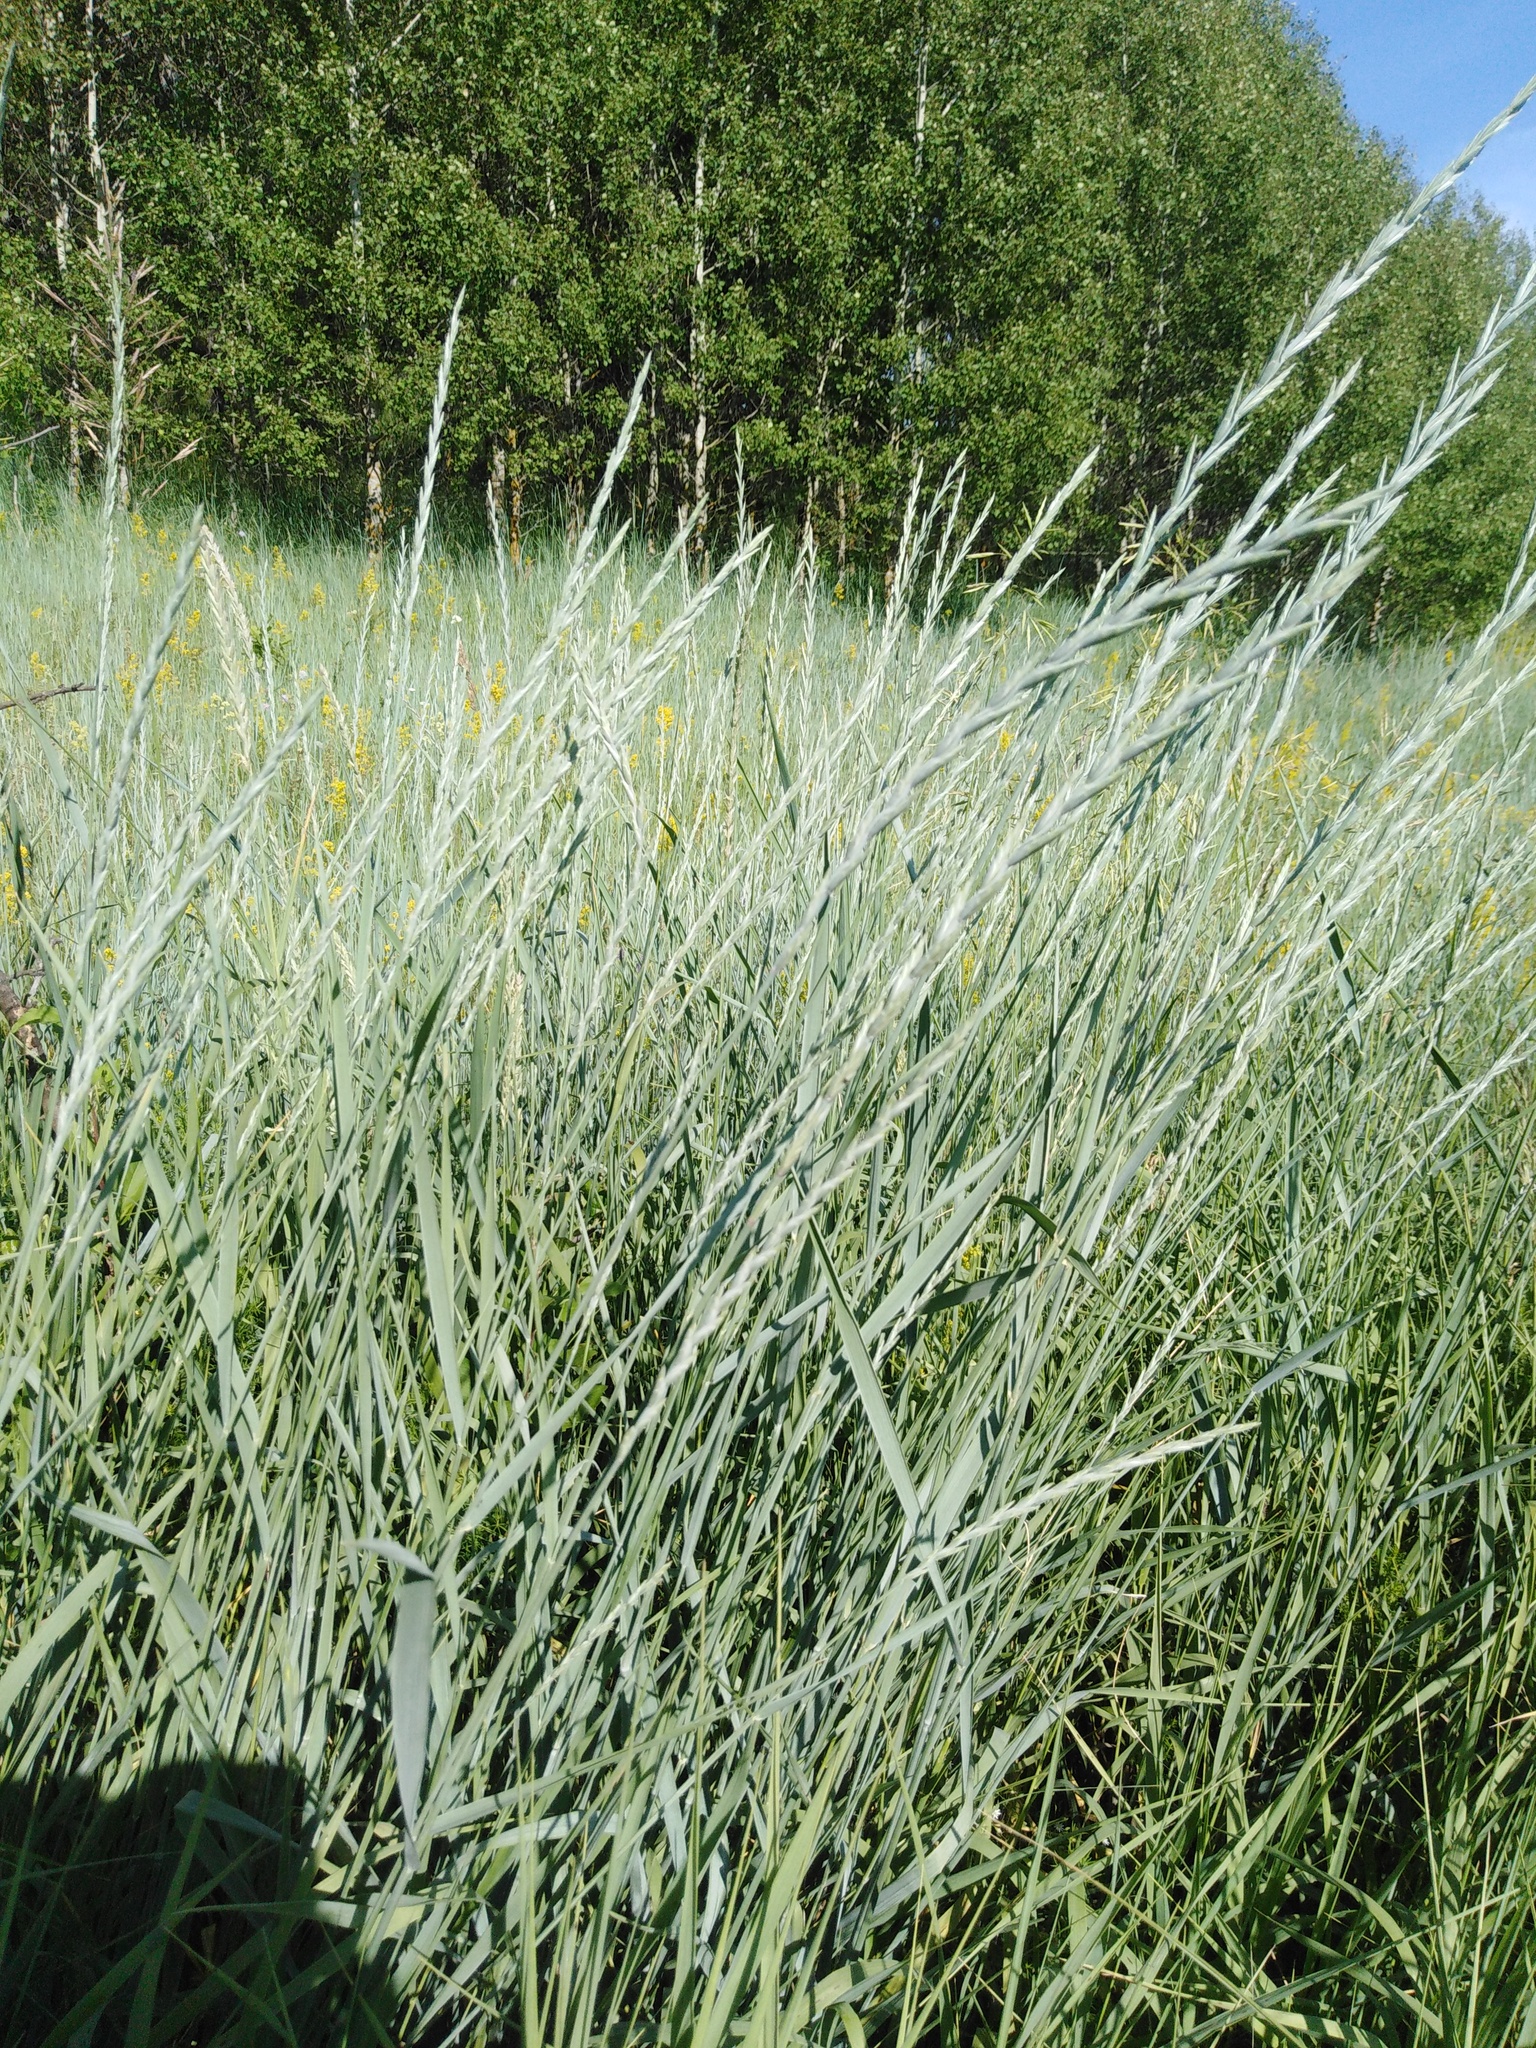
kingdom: Plantae
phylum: Tracheophyta
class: Liliopsida
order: Poales
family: Poaceae
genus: Thinopyrum
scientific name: Thinopyrum intermedium
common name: Intermediate wheatgrass
